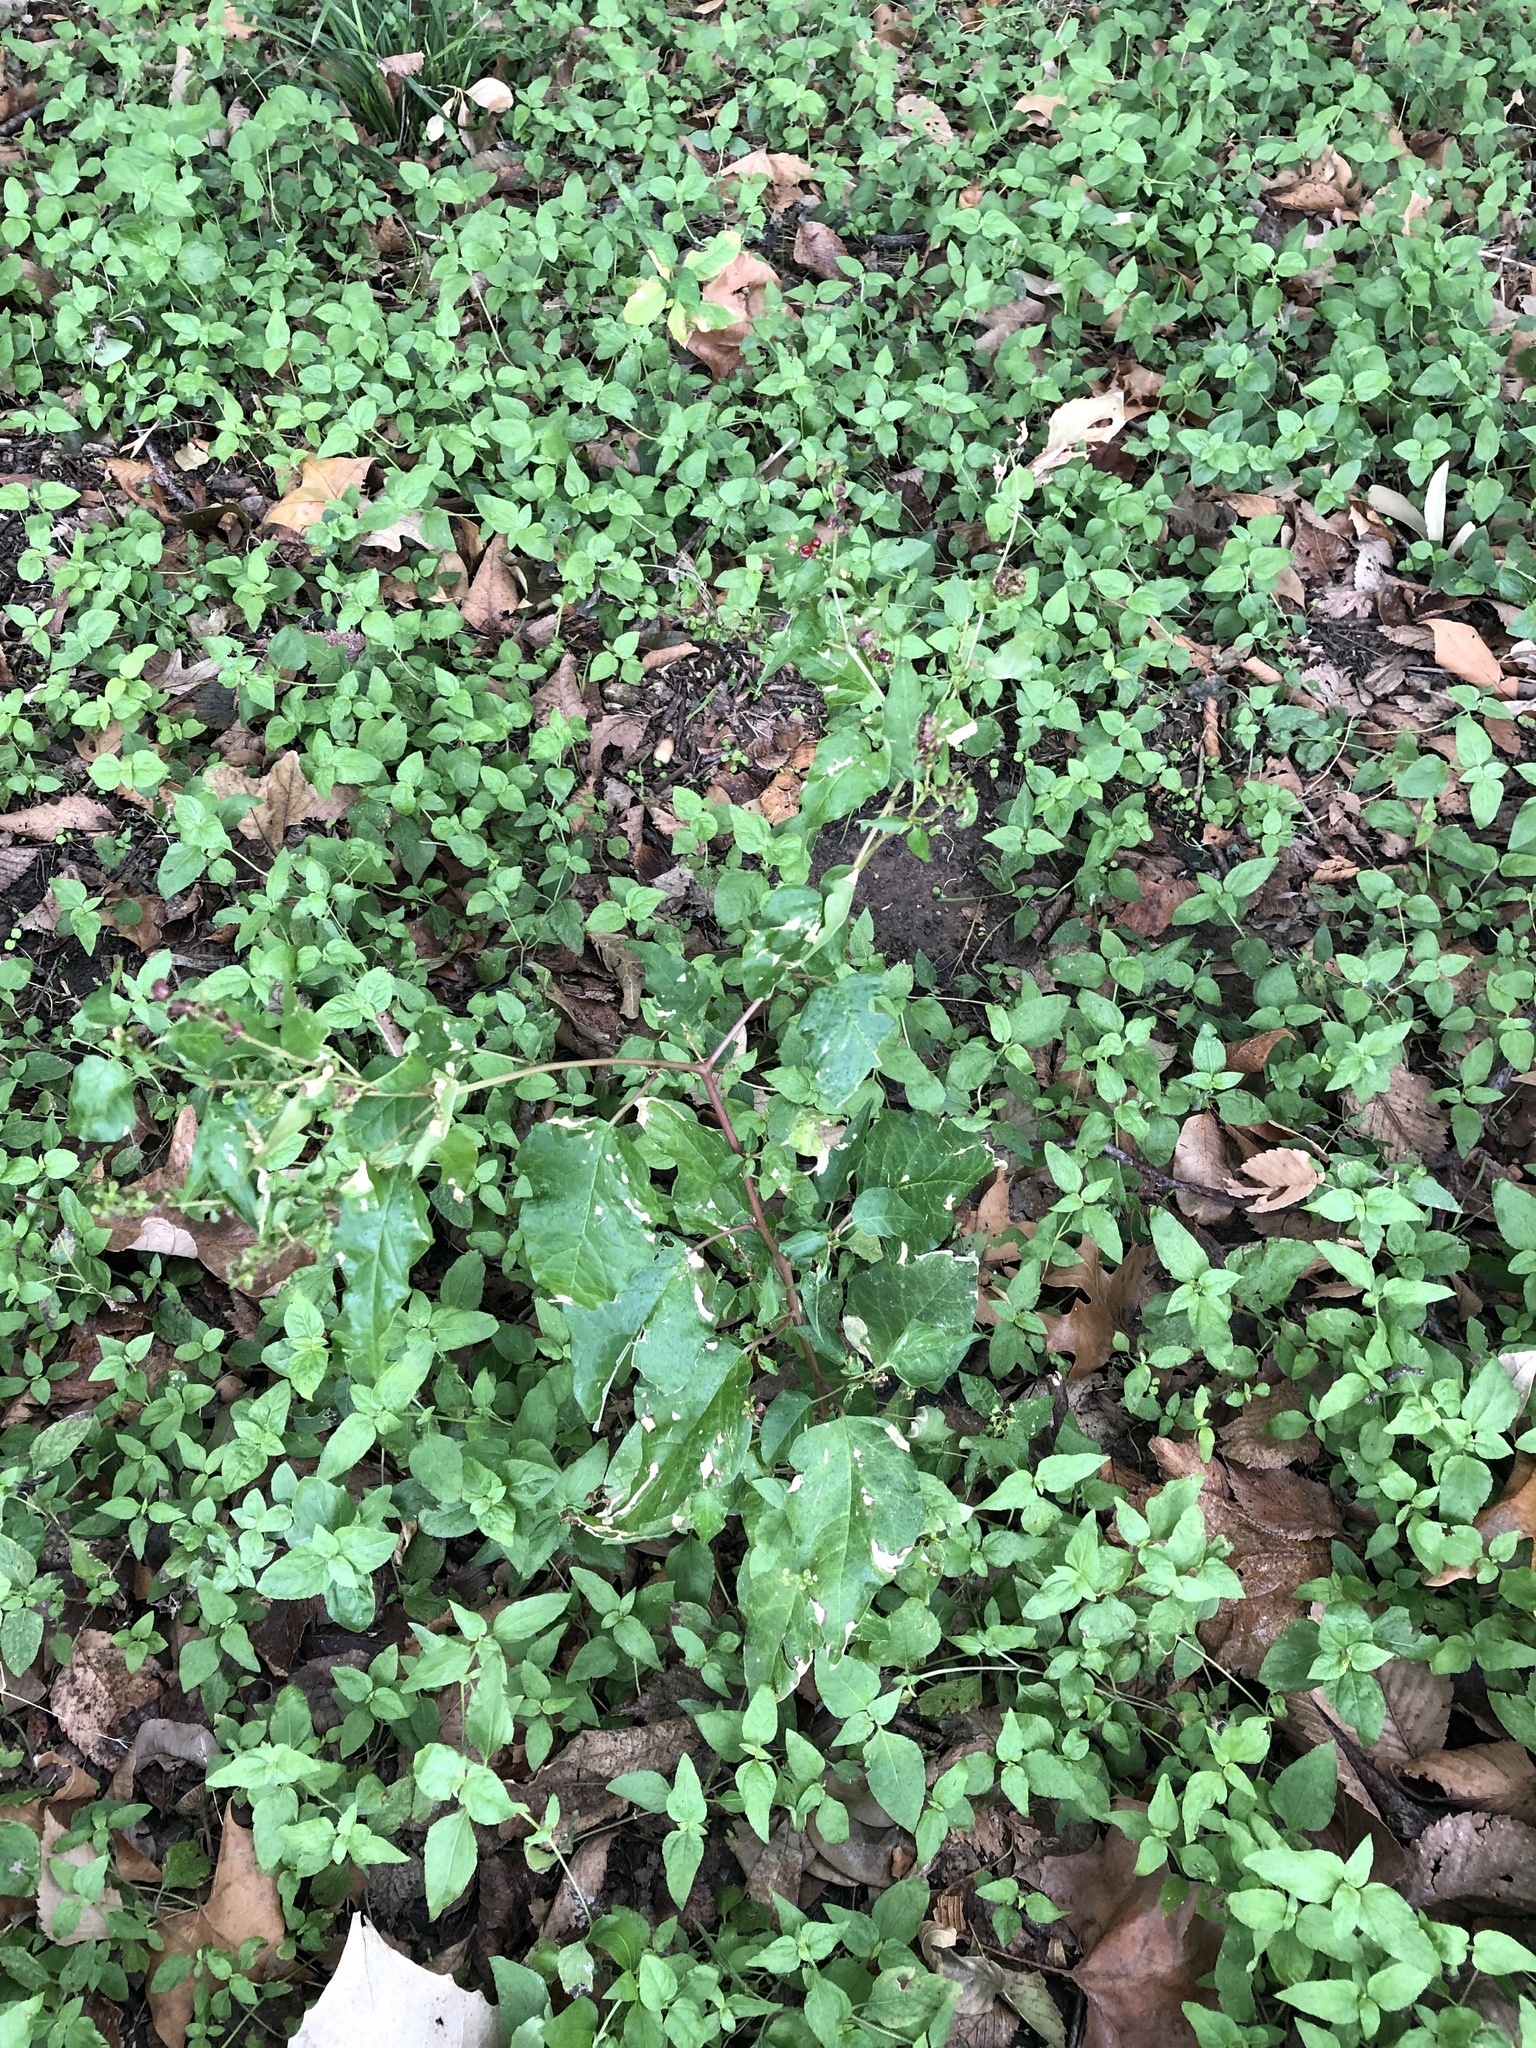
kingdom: Plantae
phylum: Tracheophyta
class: Magnoliopsida
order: Caryophyllales
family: Phytolaccaceae
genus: Rivina
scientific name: Rivina humilis
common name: Rougeplant
